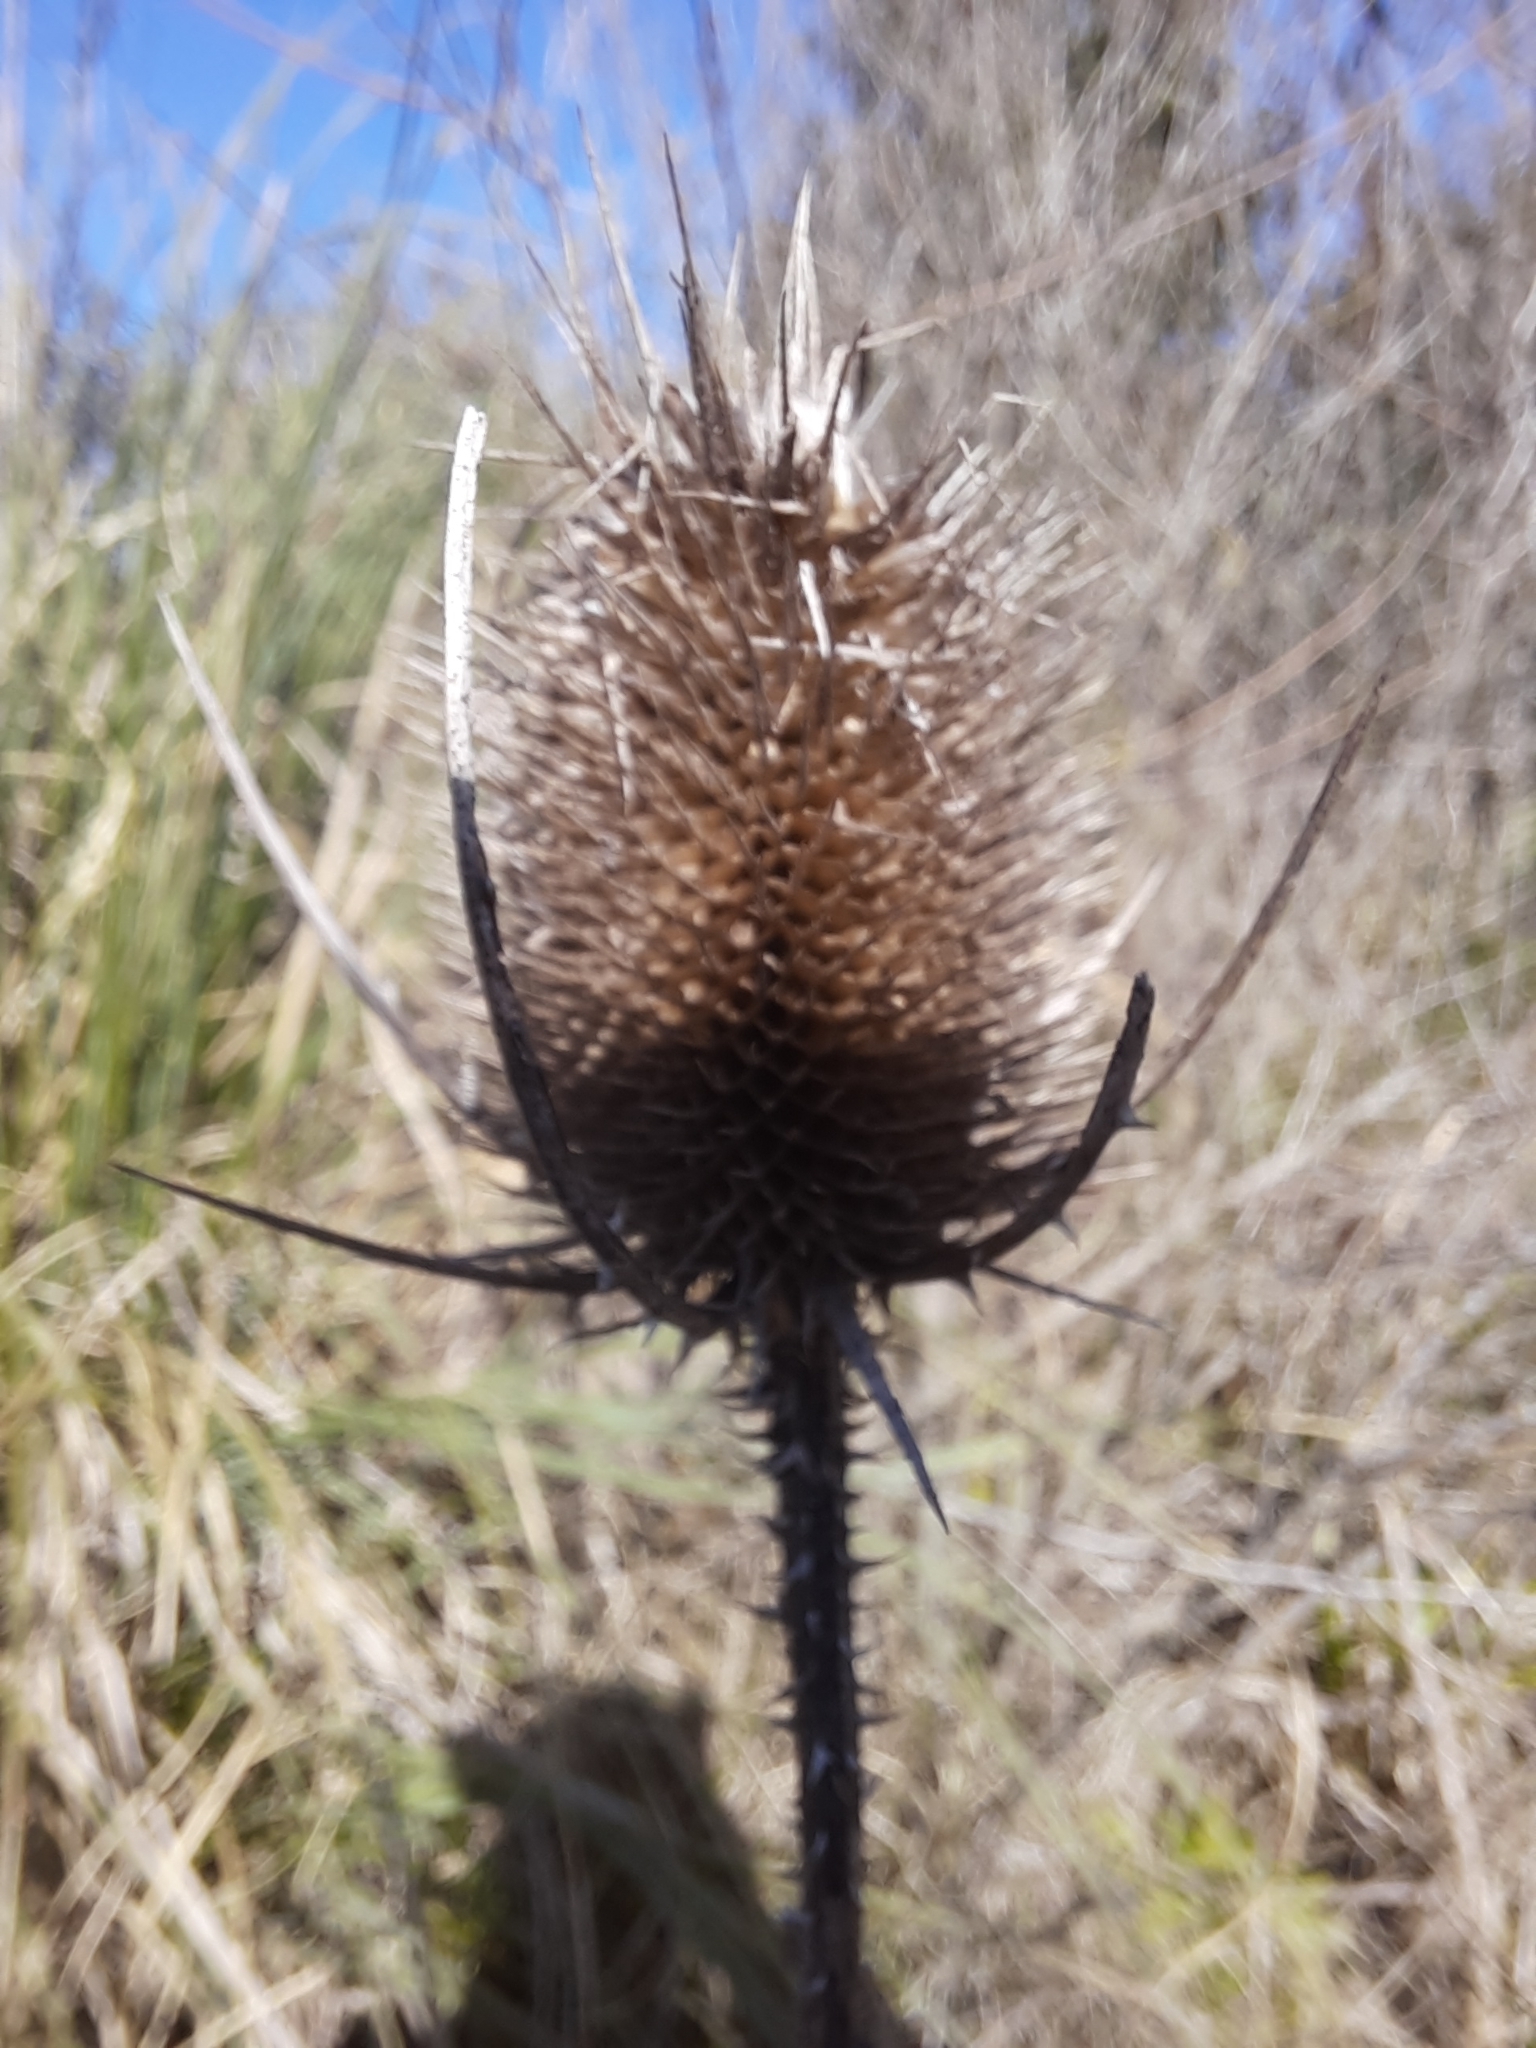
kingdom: Plantae
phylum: Tracheophyta
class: Magnoliopsida
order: Dipsacales
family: Caprifoliaceae
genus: Dipsacus
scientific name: Dipsacus fullonum
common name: Teasel
